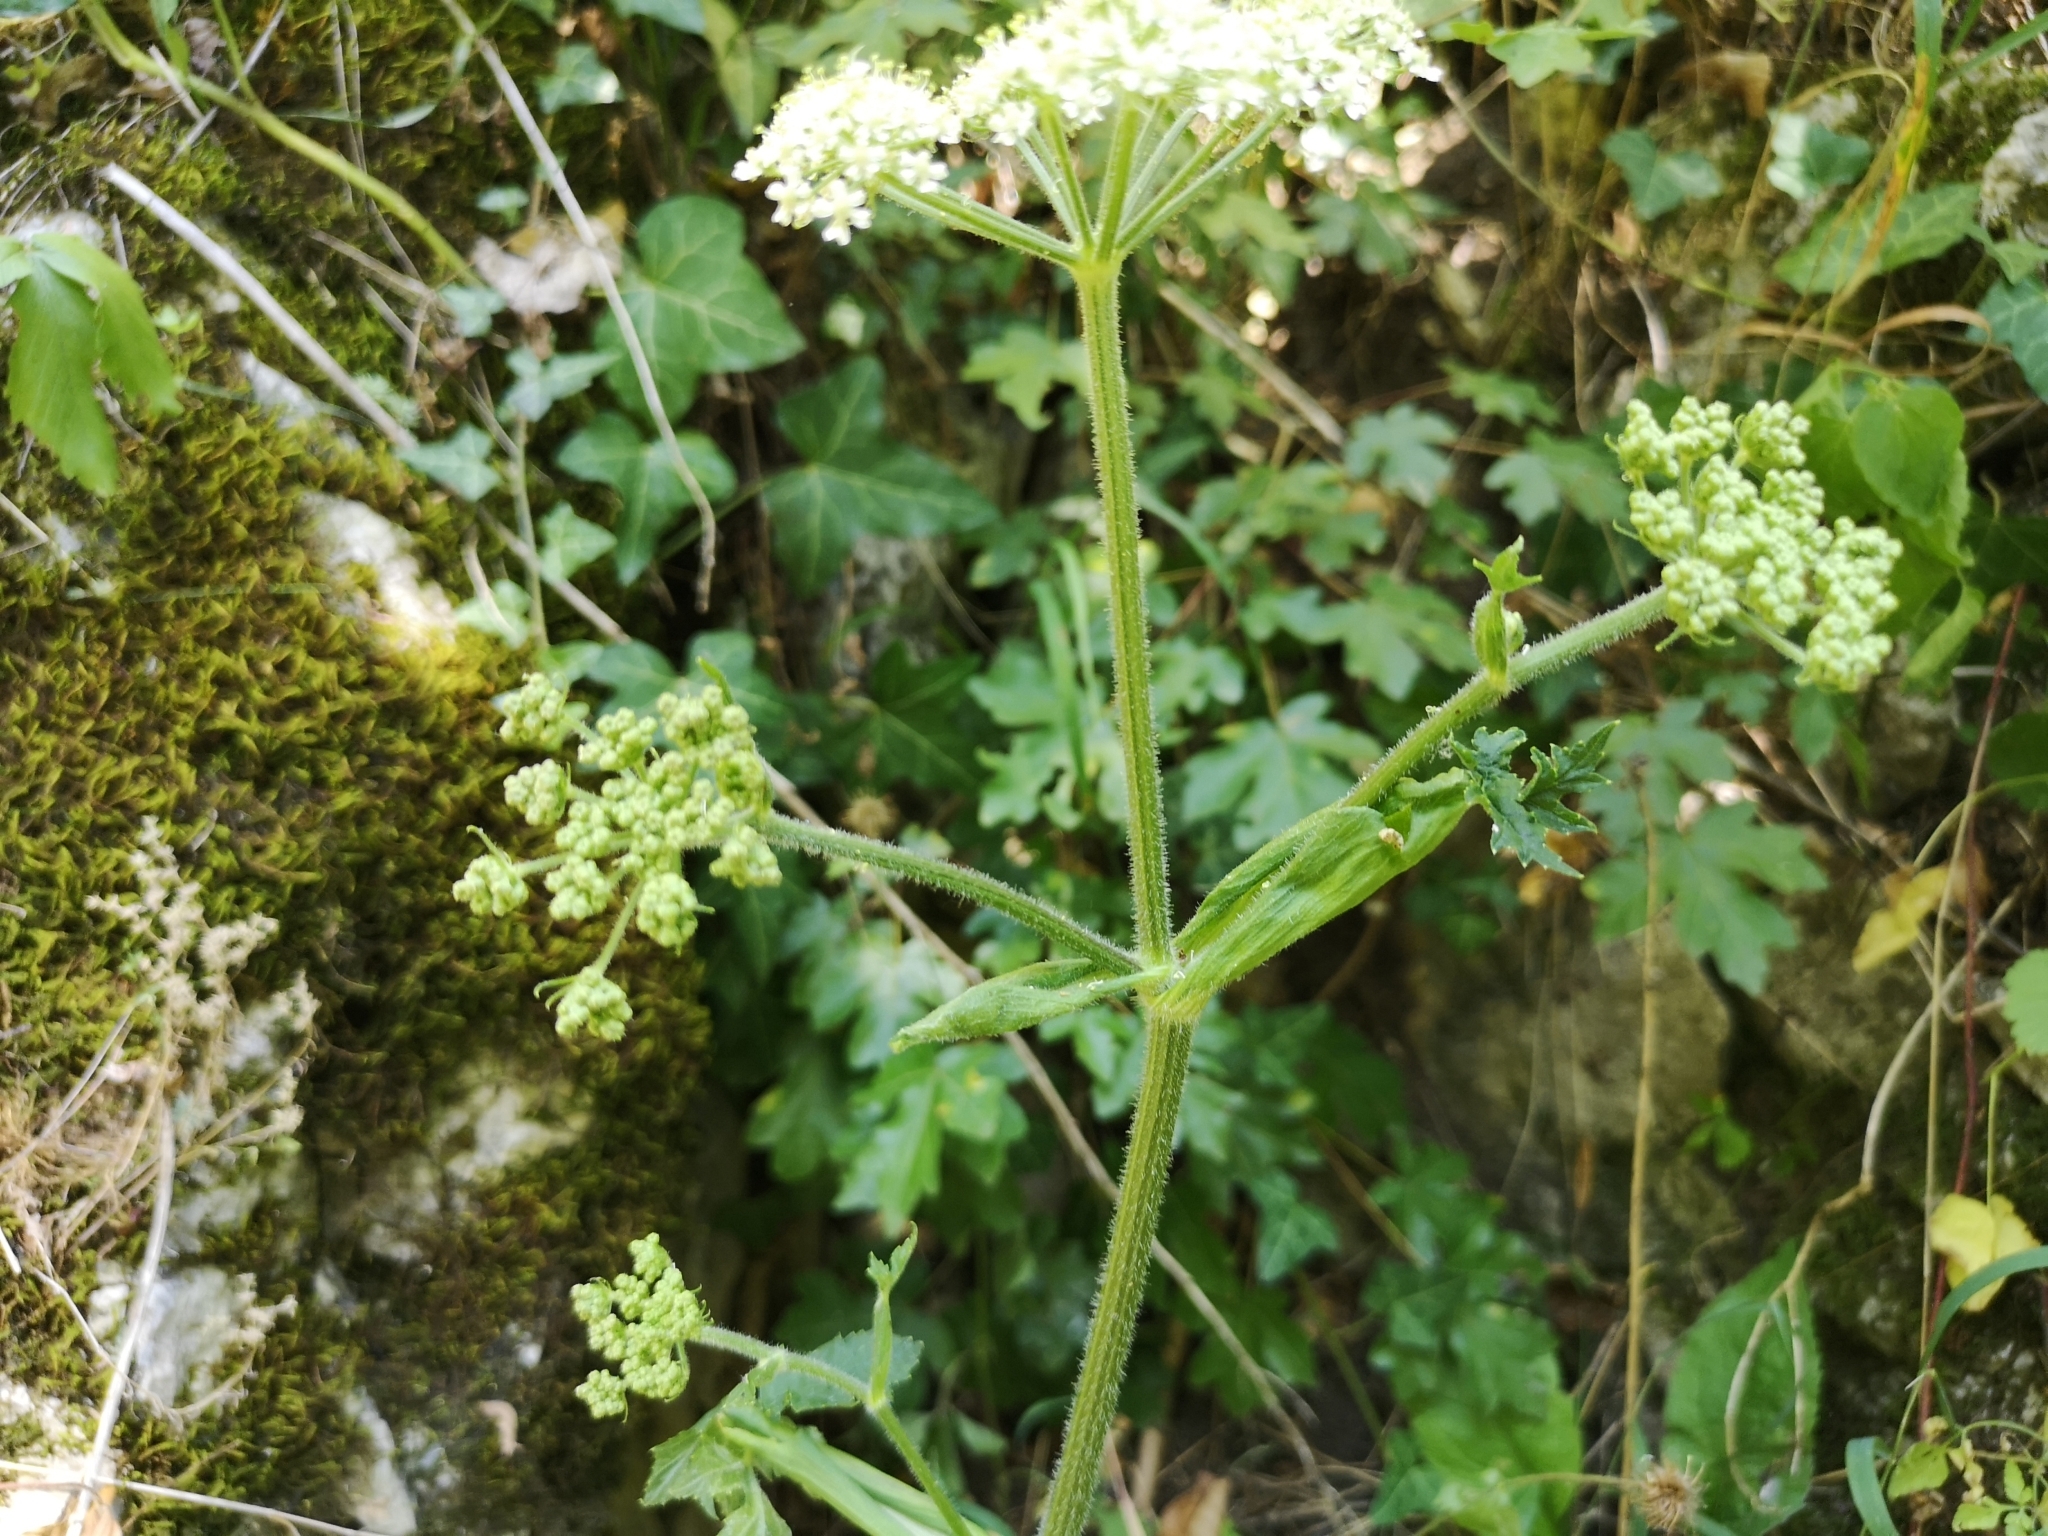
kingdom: Plantae
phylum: Tracheophyta
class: Magnoliopsida
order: Apiales
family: Apiaceae
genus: Heracleum
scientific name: Heracleum sphondylium
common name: Hogweed
